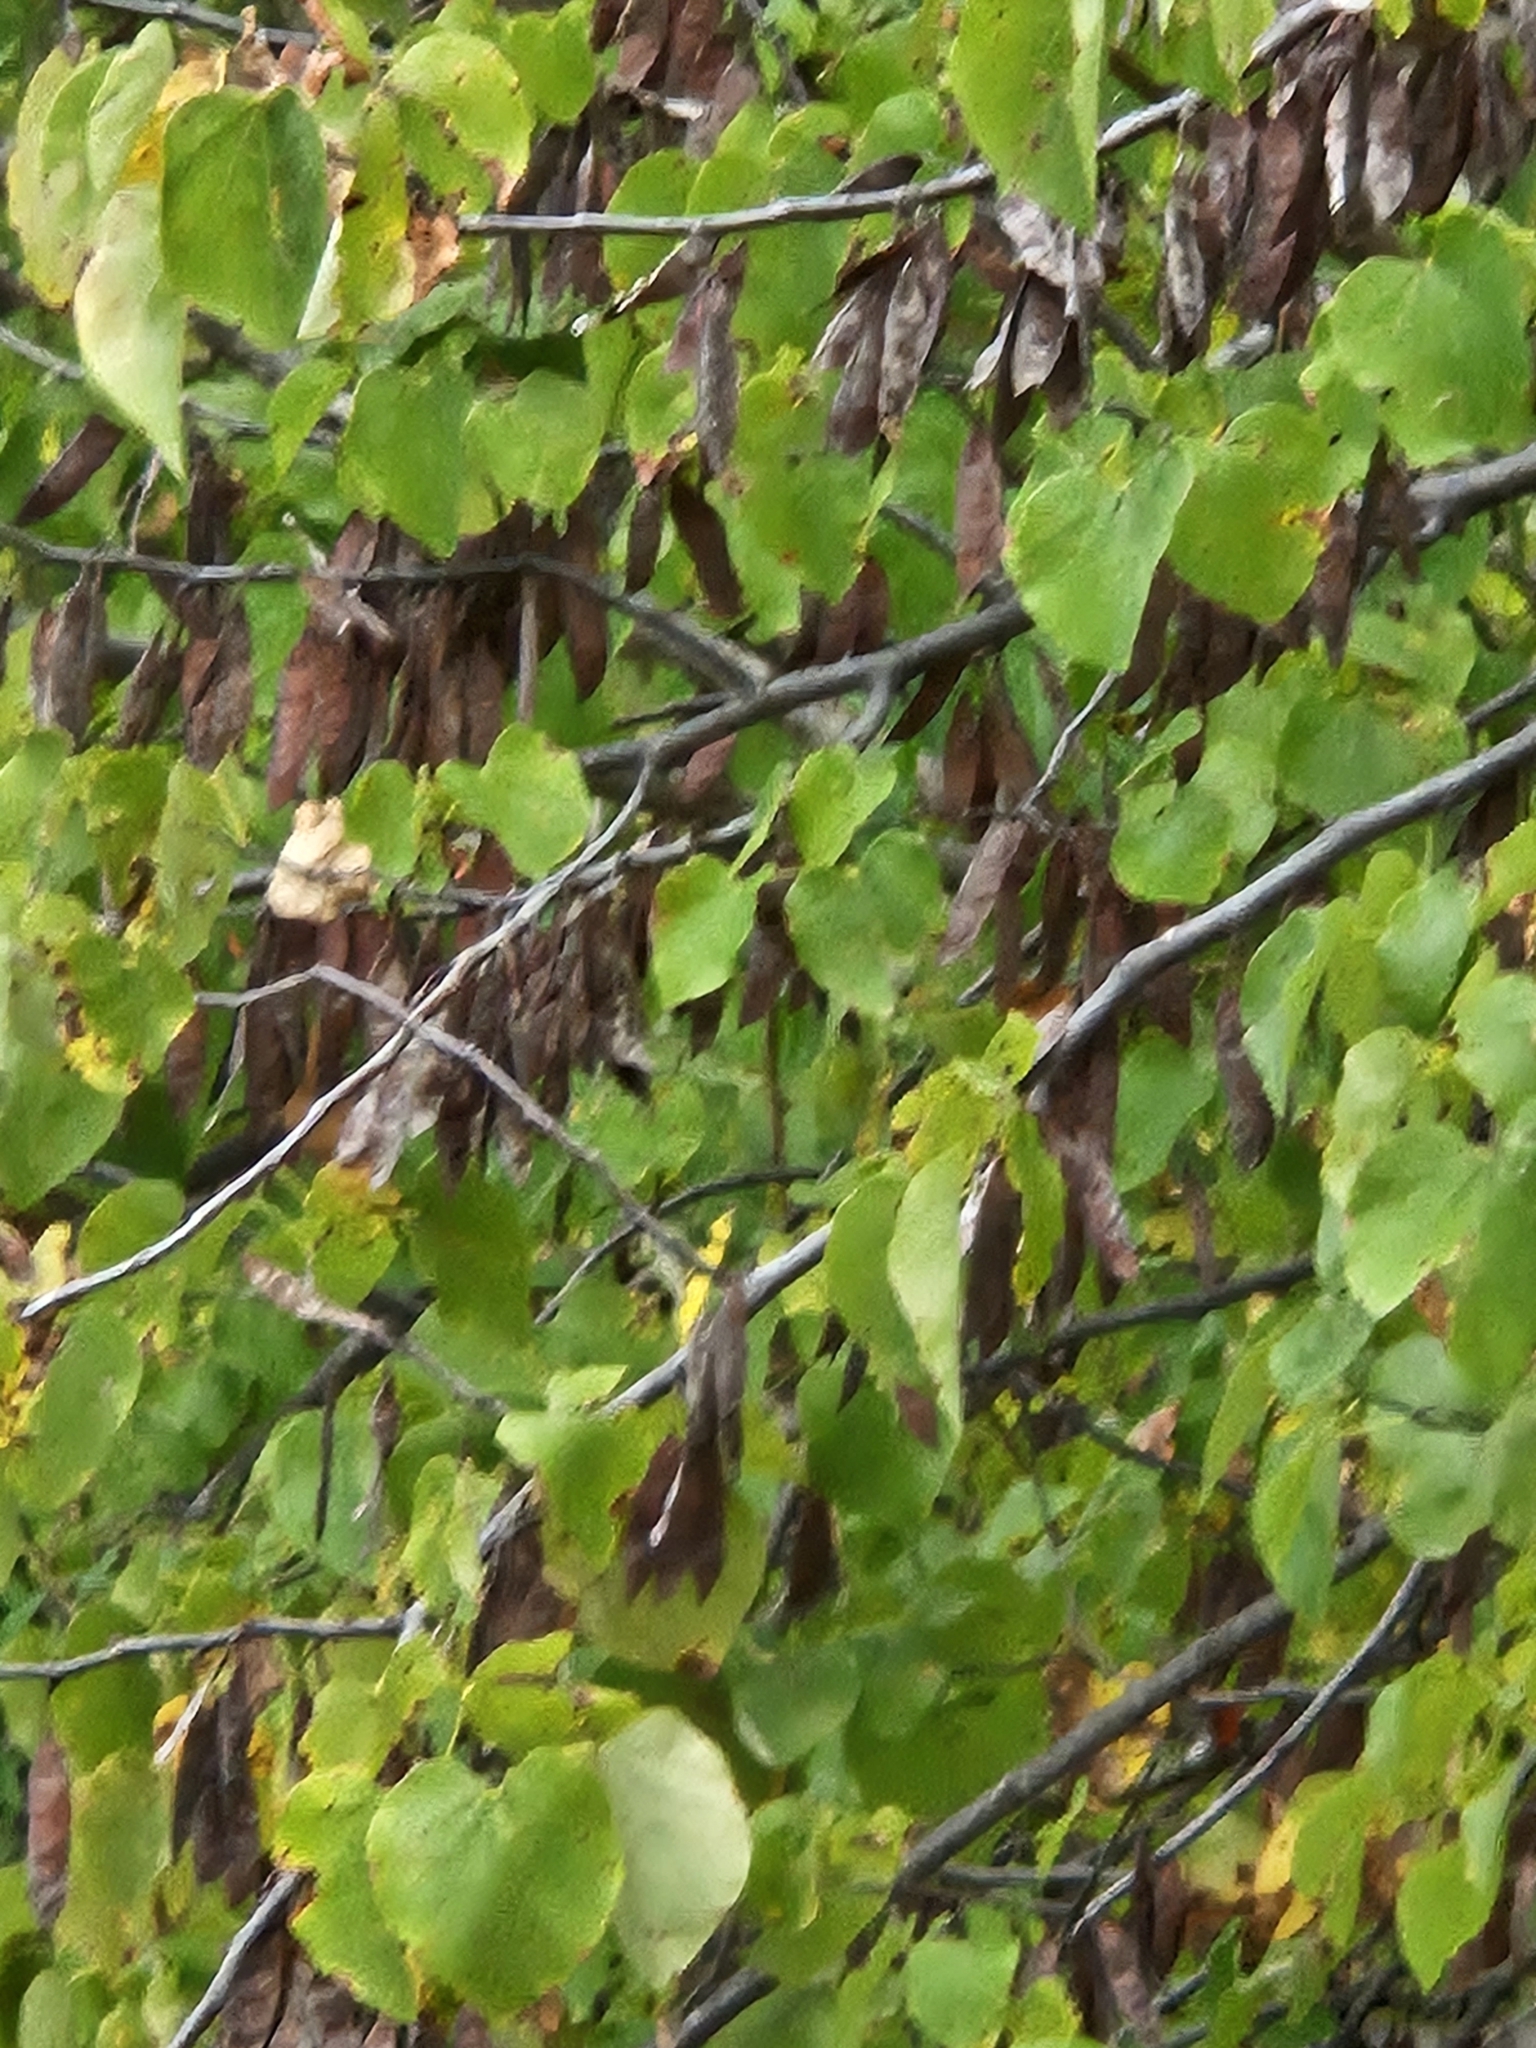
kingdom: Plantae
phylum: Tracheophyta
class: Magnoliopsida
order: Fabales
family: Fabaceae
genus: Cercis
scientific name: Cercis canadensis
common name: Eastern redbud
